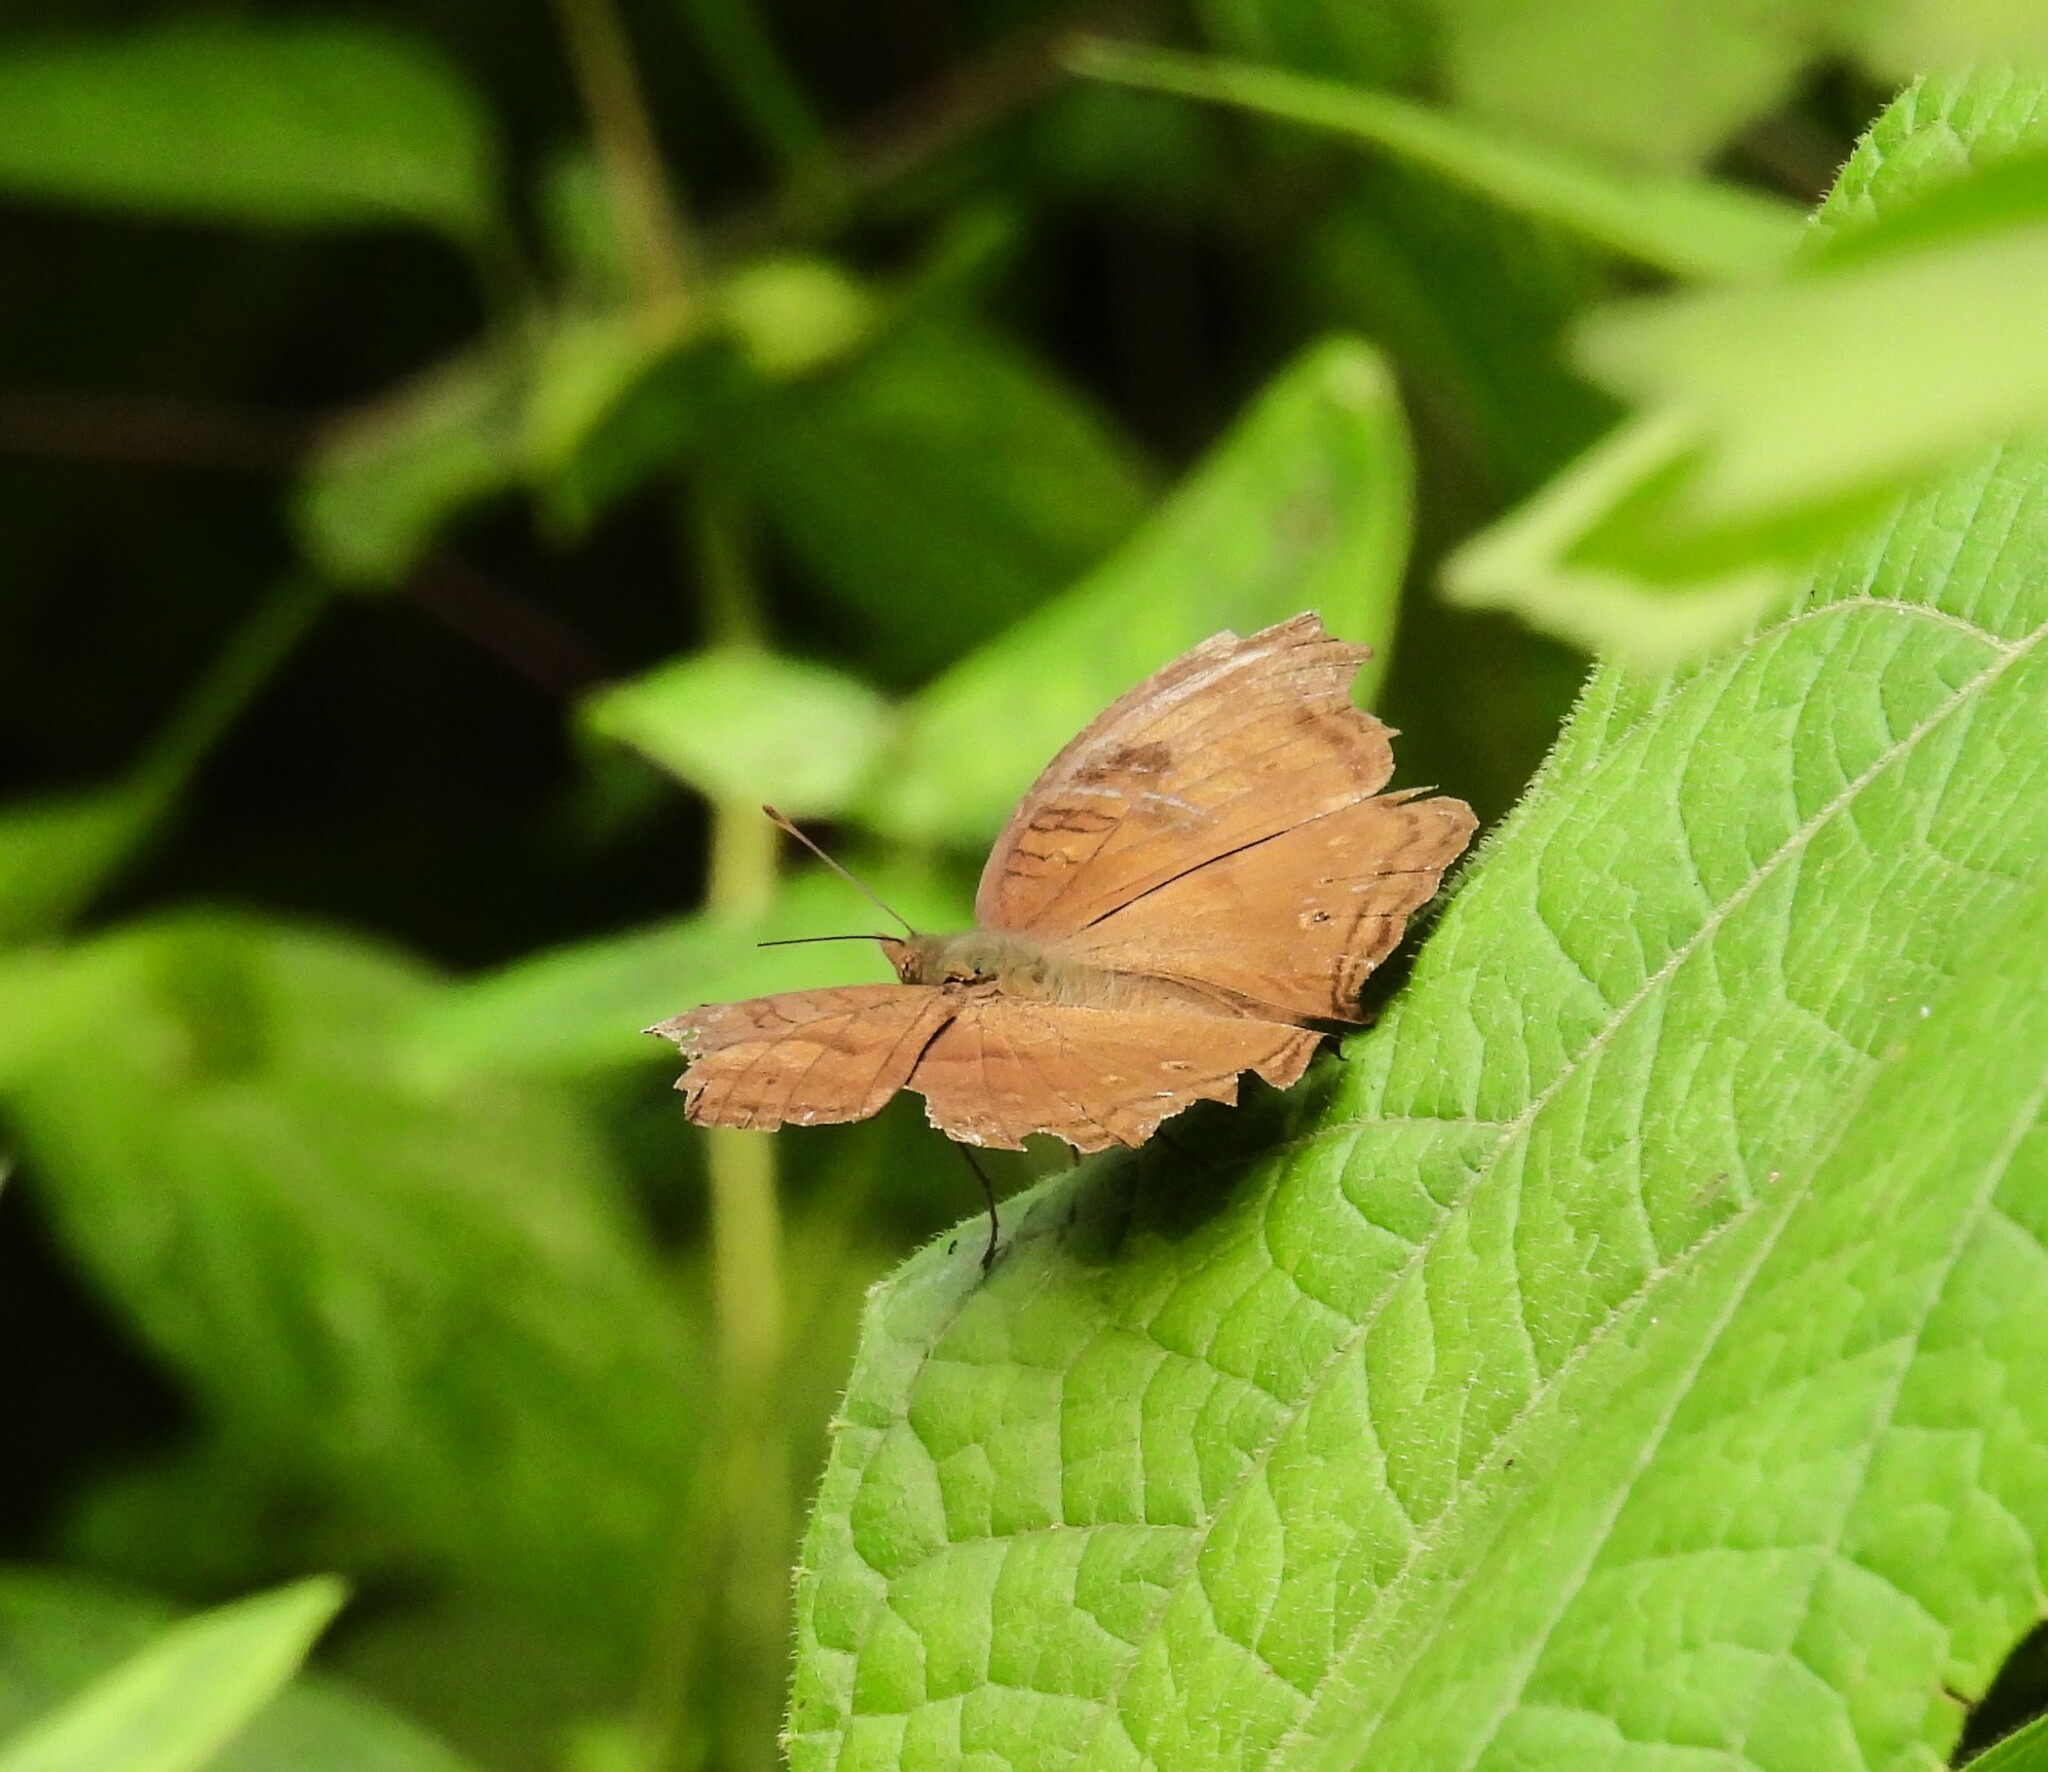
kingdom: Animalia
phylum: Arthropoda
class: Insecta
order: Lepidoptera
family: Nymphalidae
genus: Junonia
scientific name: Junonia iphita
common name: Chocolate pansy
